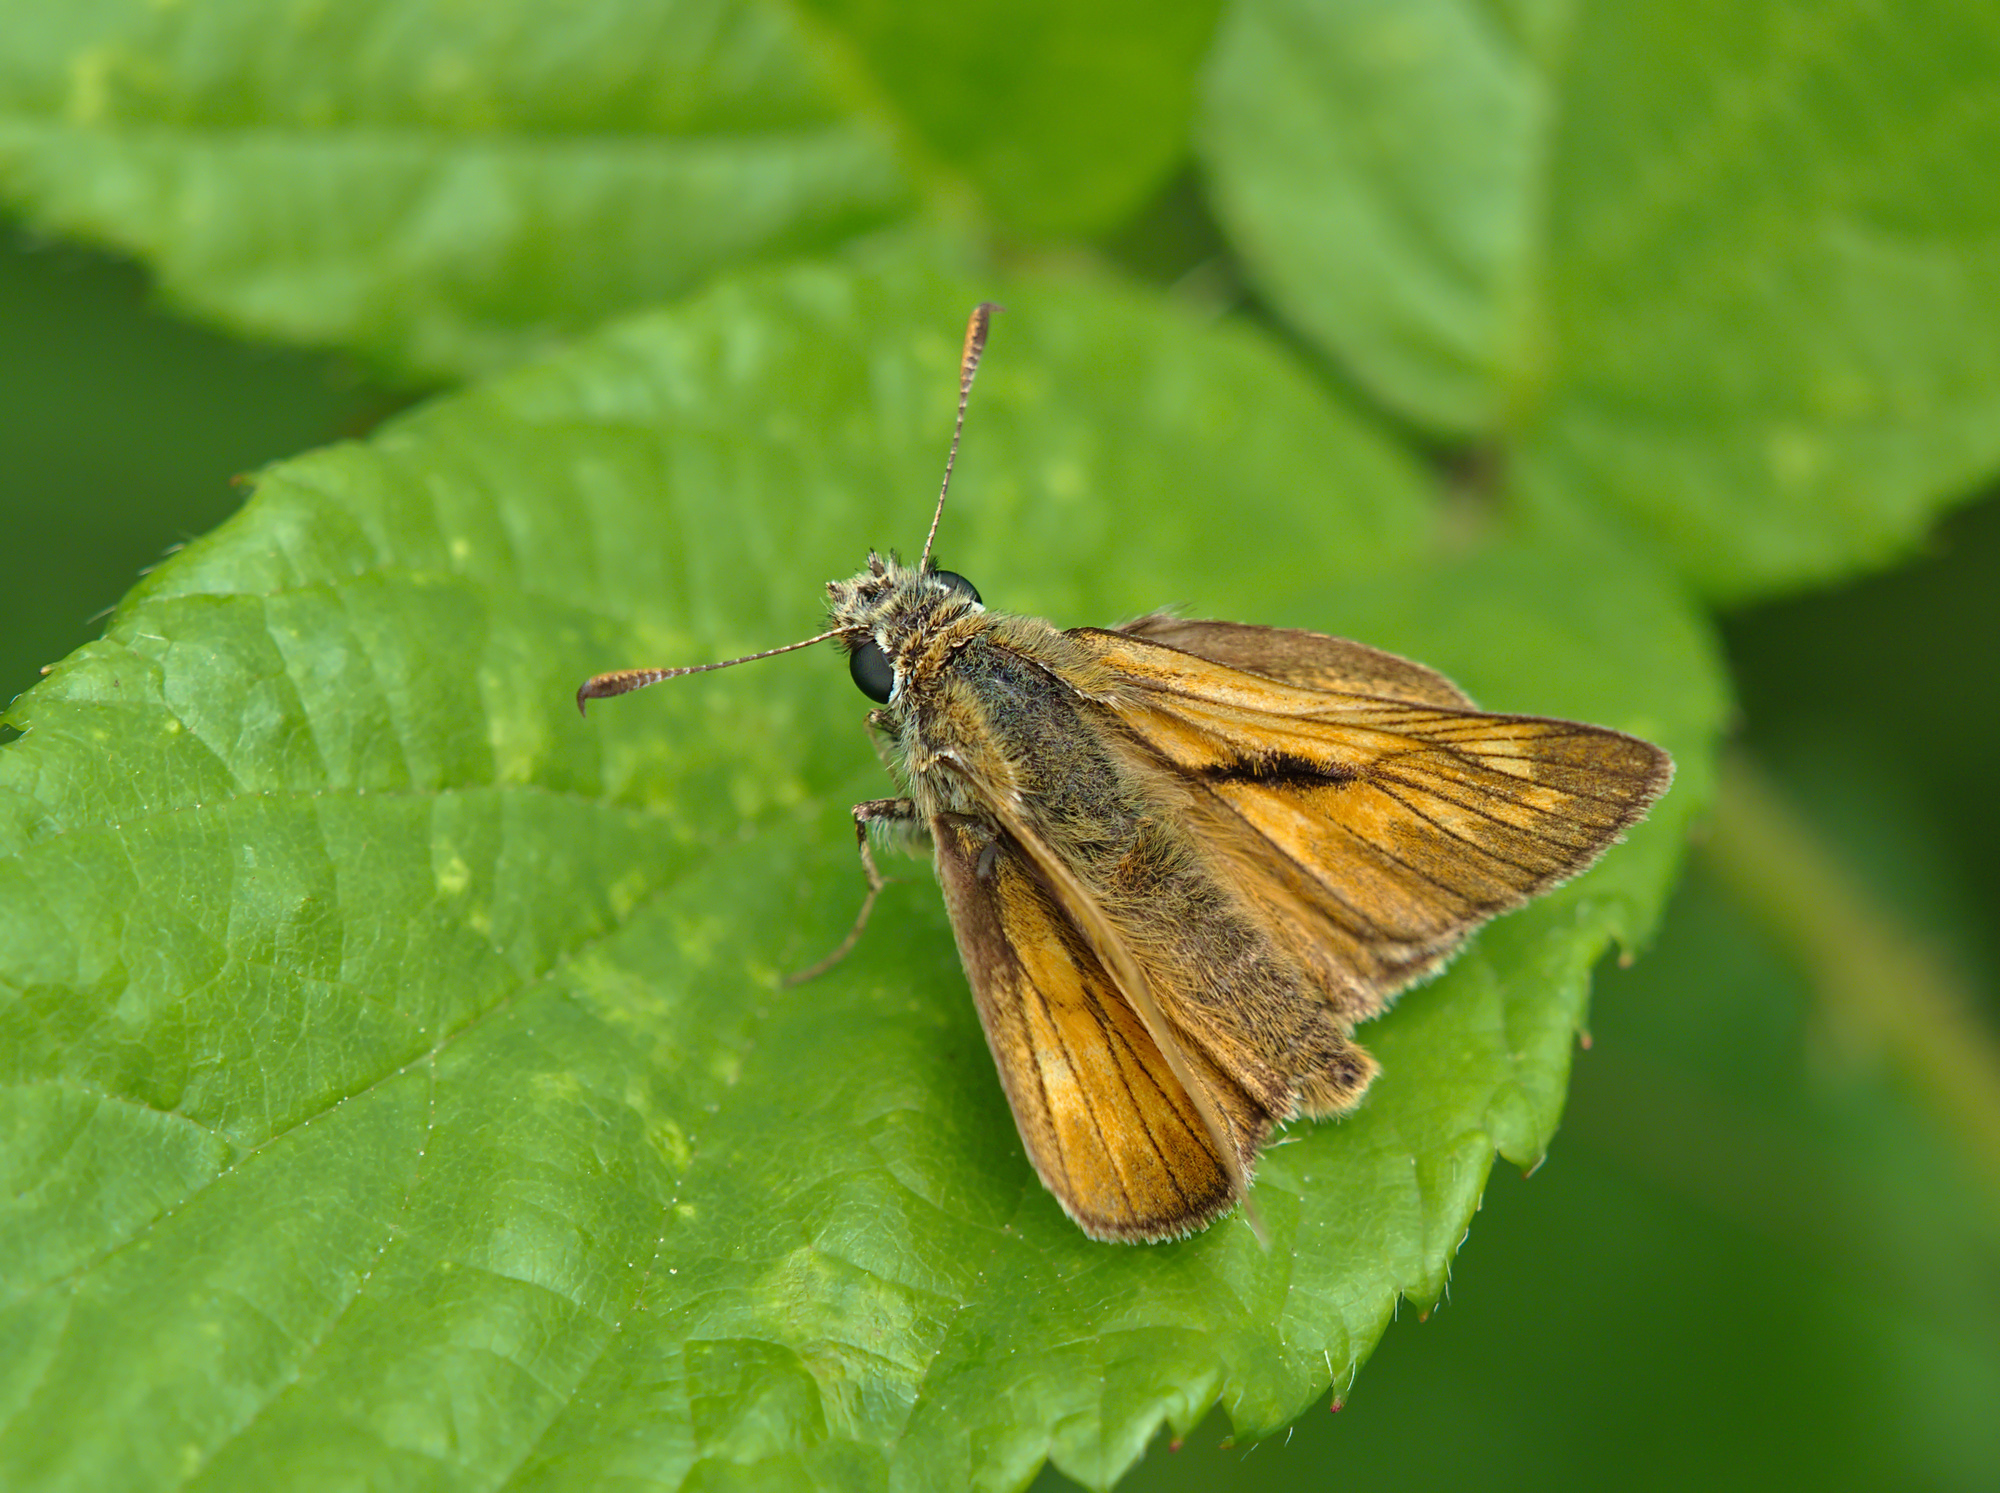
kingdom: Animalia
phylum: Arthropoda
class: Insecta
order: Lepidoptera
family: Hesperiidae
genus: Ochlodes
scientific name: Ochlodes venata
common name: Large skipper
